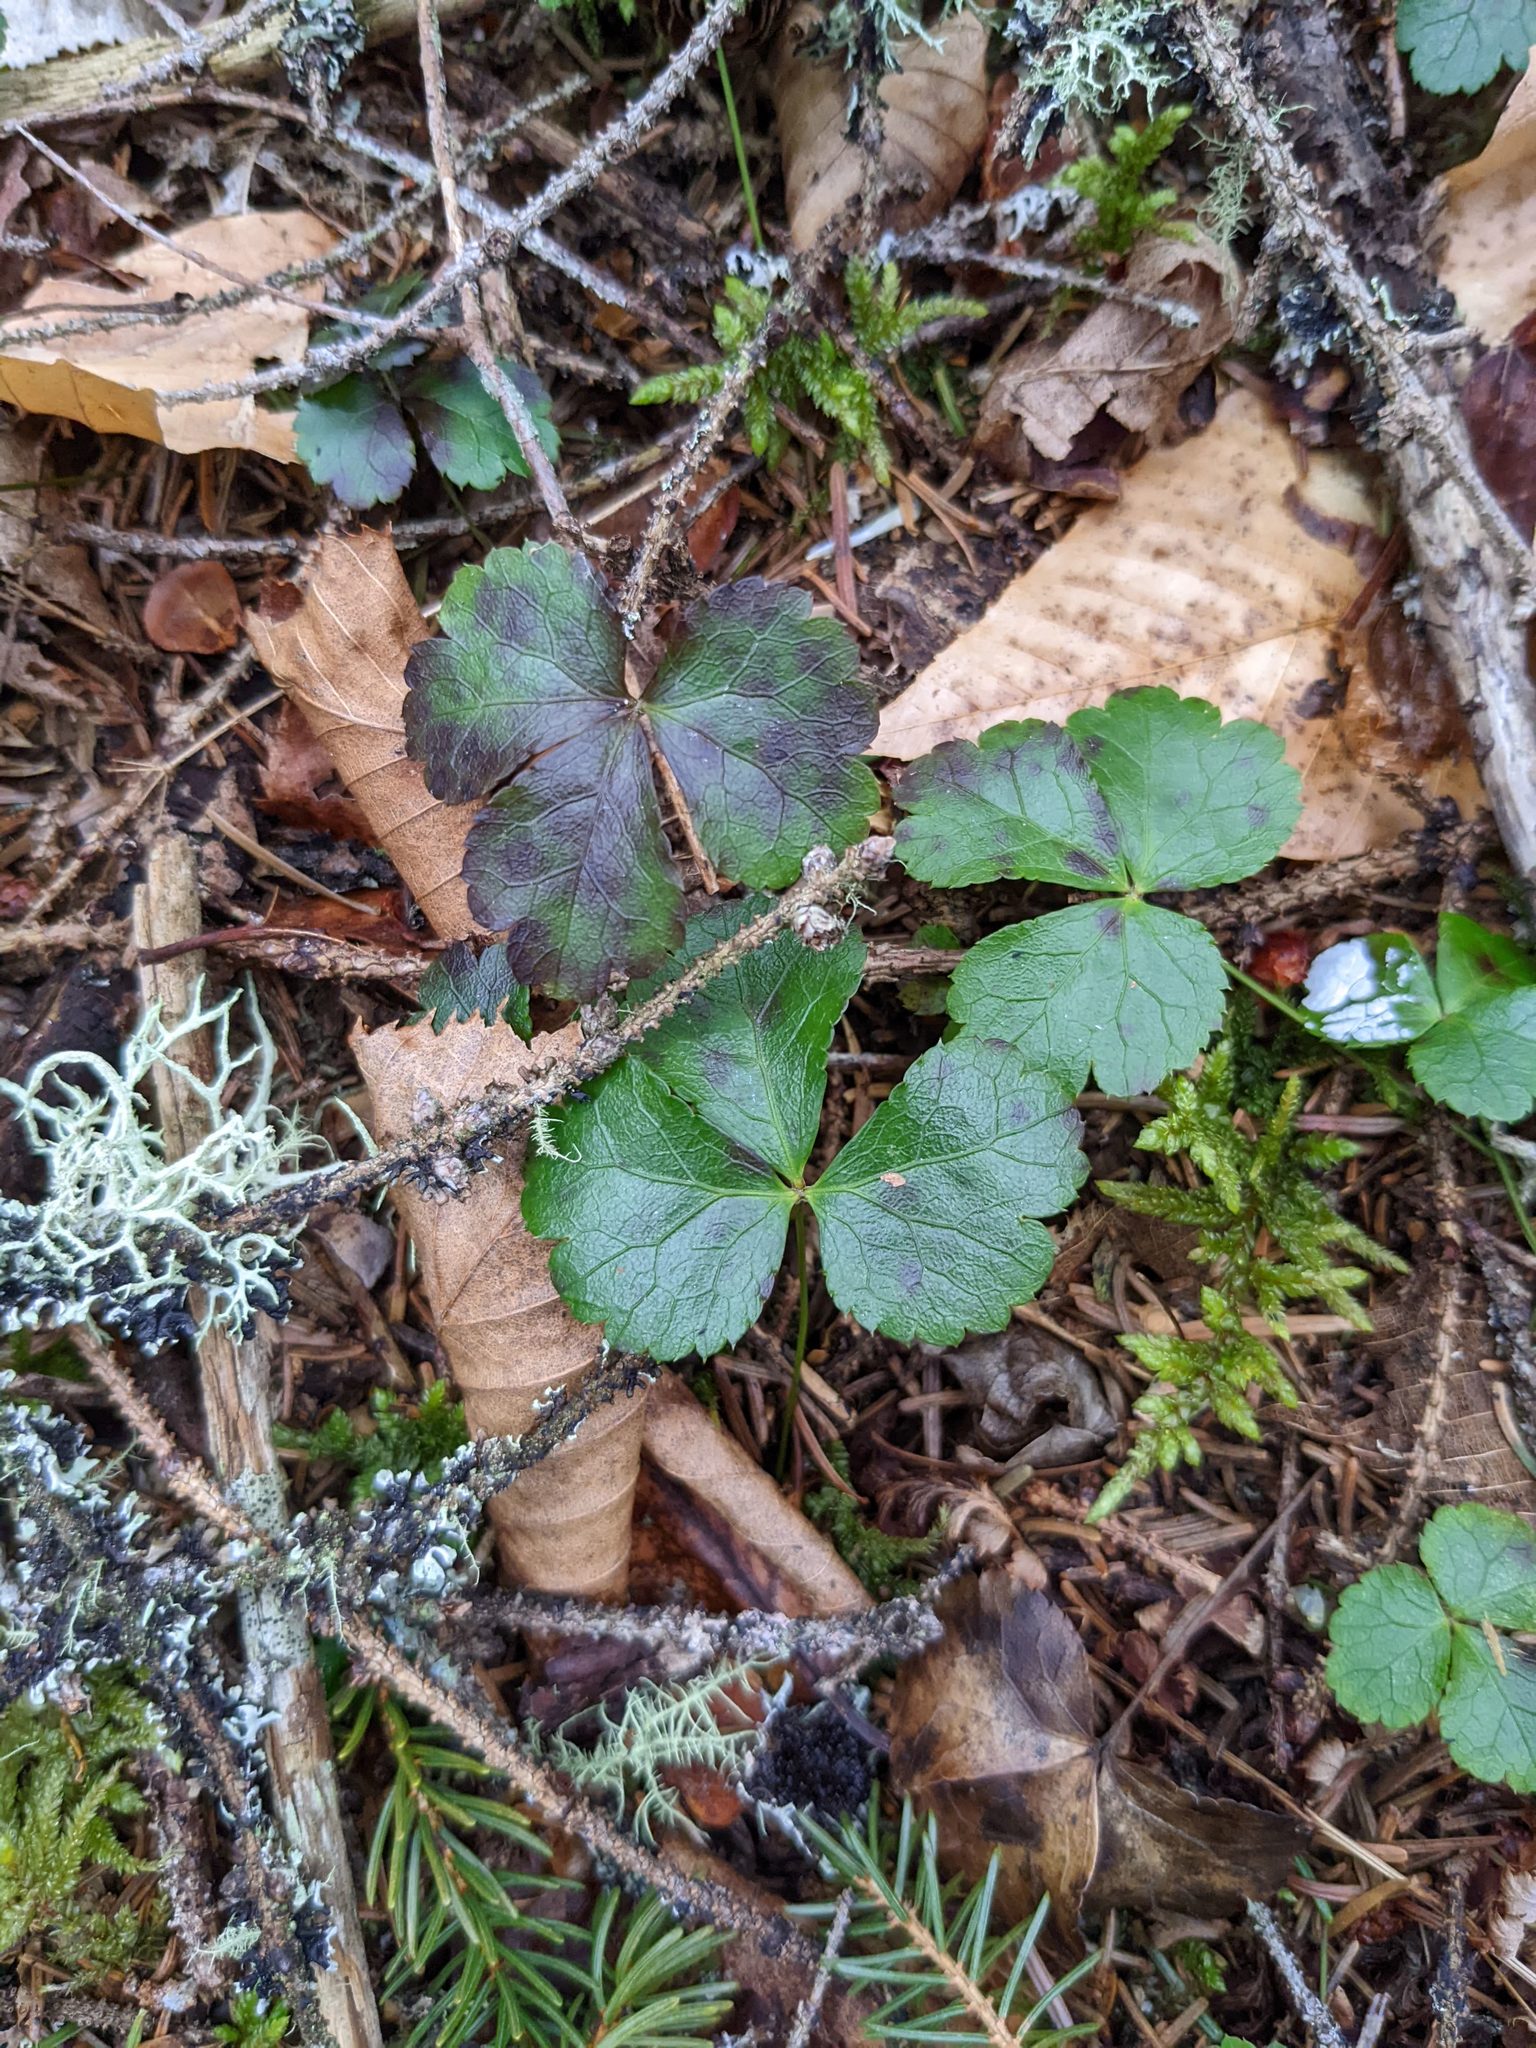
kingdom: Plantae
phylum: Tracheophyta
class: Magnoliopsida
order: Ranunculales
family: Ranunculaceae
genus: Coptis
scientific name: Coptis trifolia
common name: Canker-root
